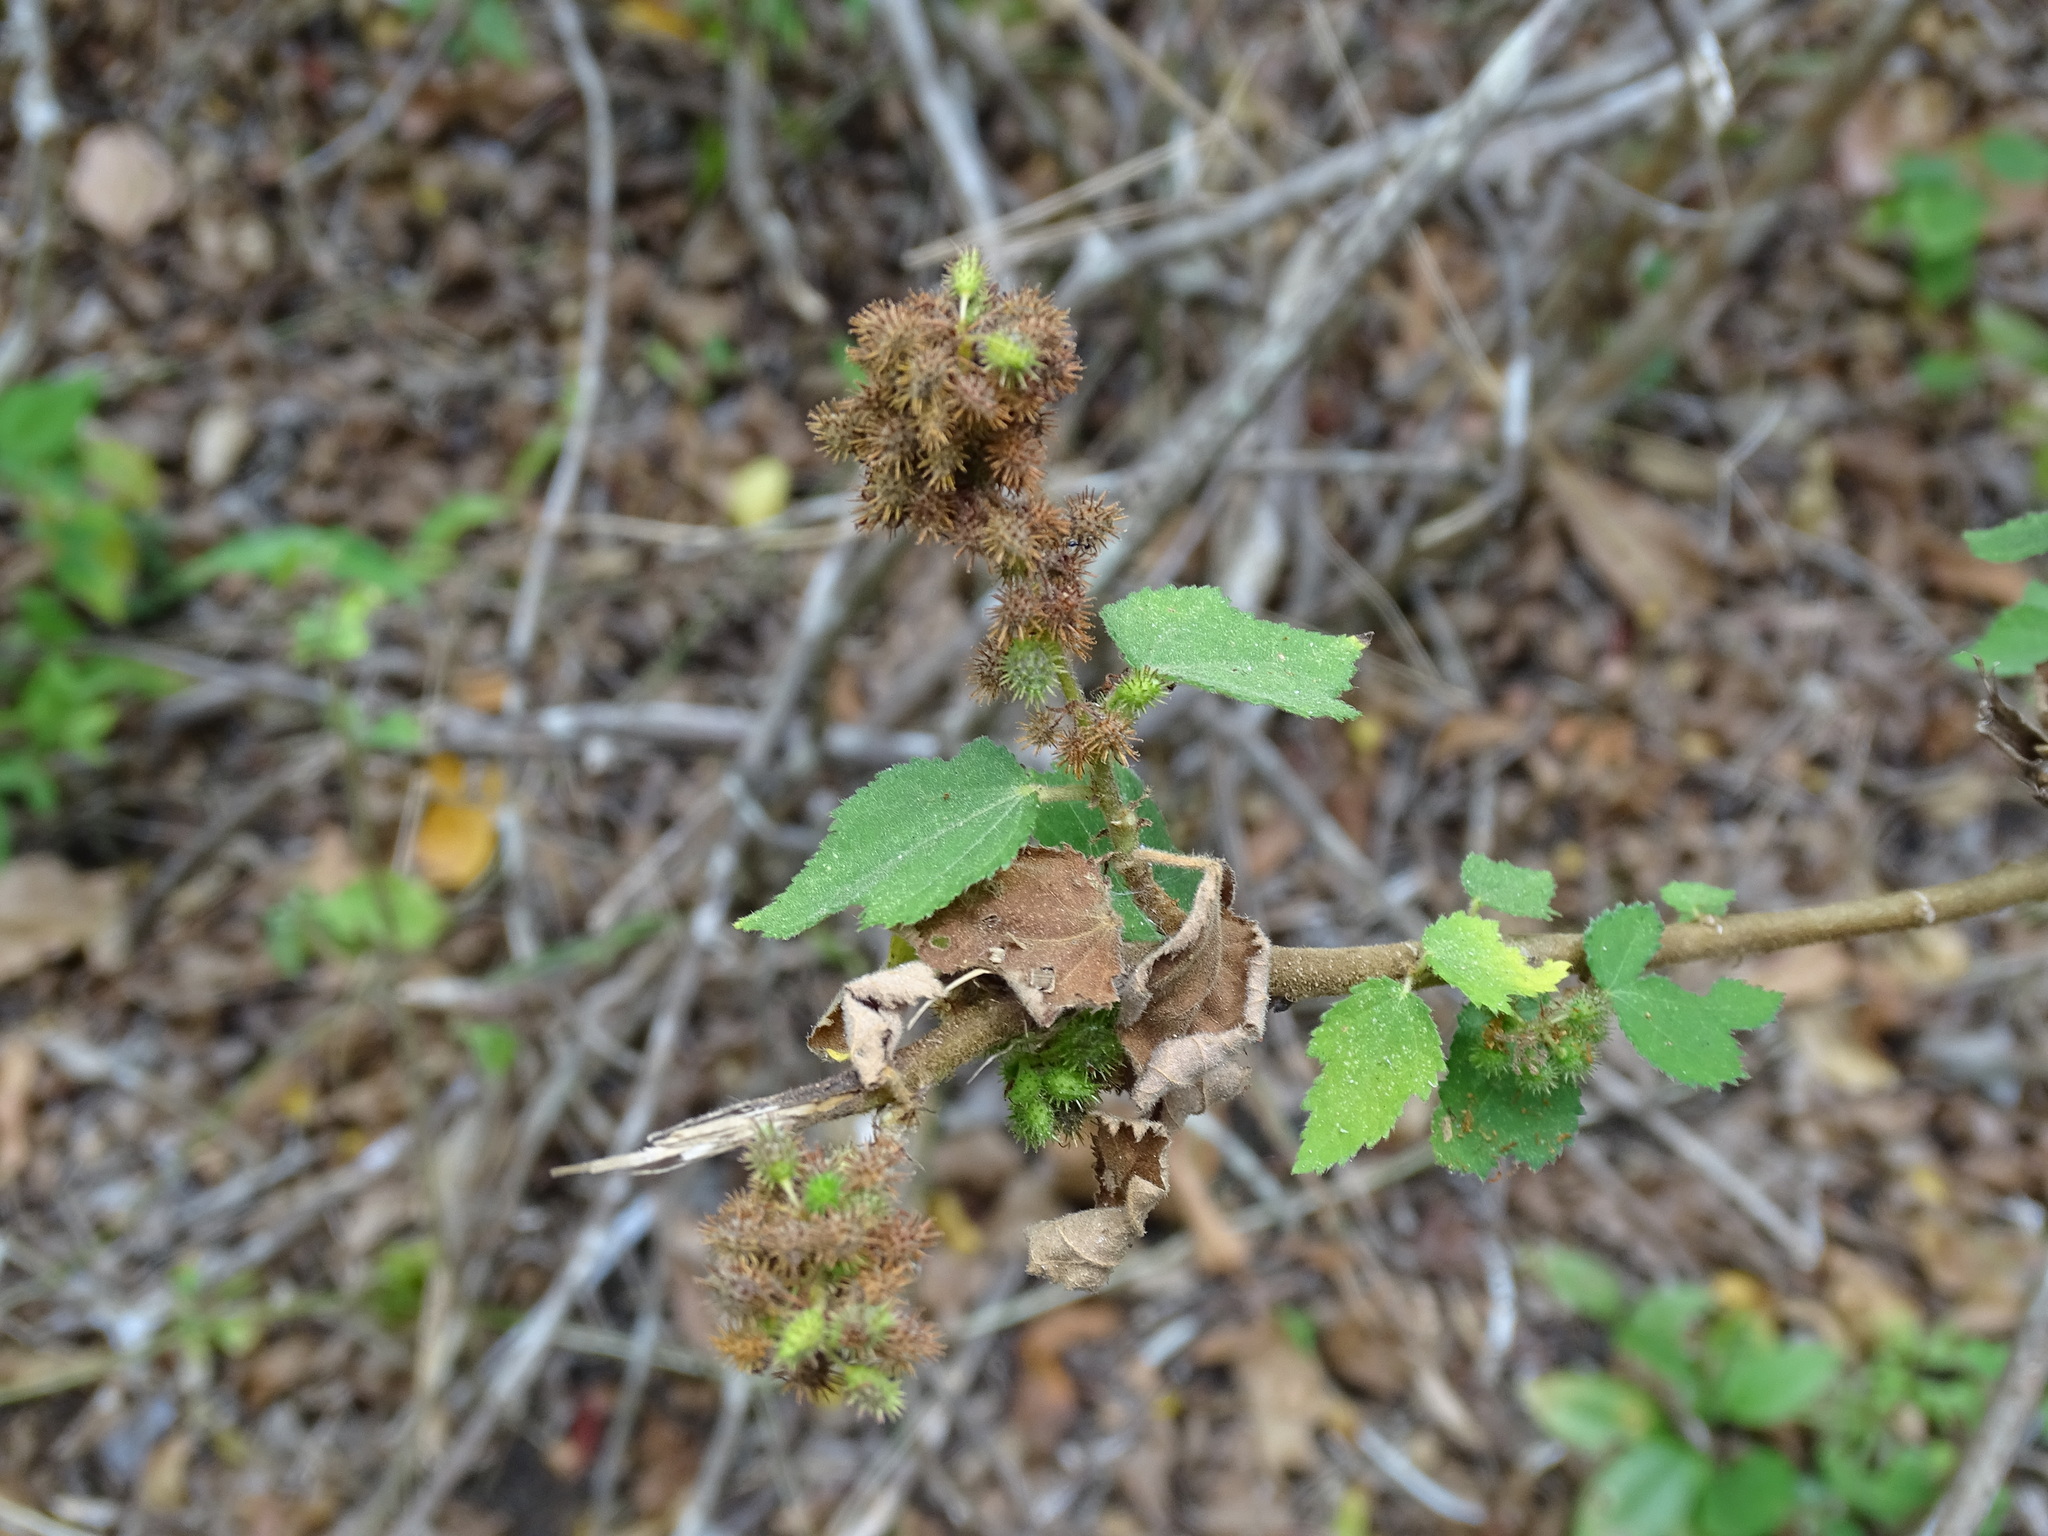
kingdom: Plantae
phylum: Tracheophyta
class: Magnoliopsida
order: Malvales
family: Malvaceae
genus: Triumfetta
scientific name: Triumfetta semitriloba
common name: Sacramento burbark
